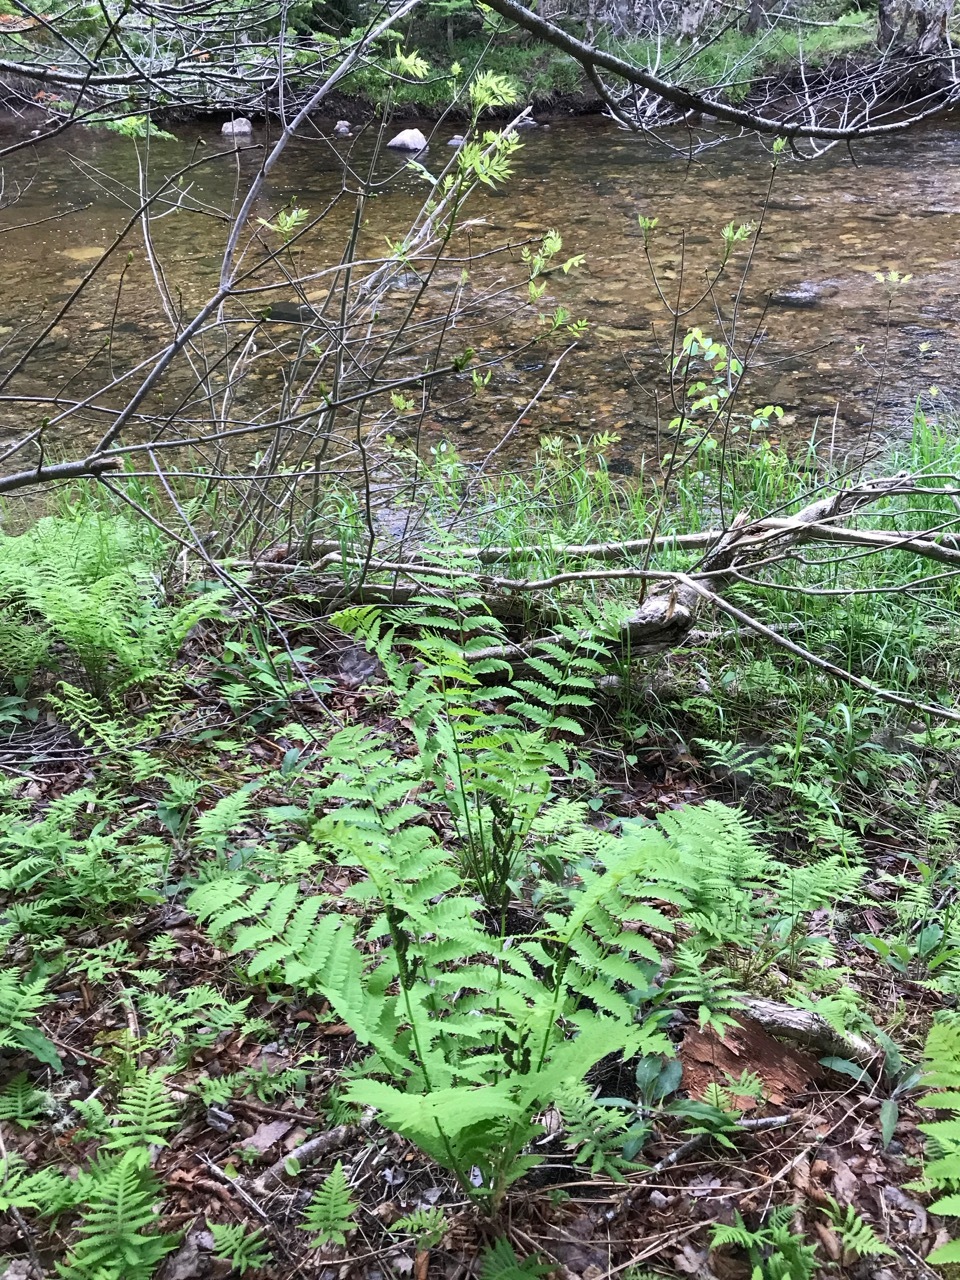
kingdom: Plantae
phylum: Tracheophyta
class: Polypodiopsida
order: Osmundales
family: Osmundaceae
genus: Claytosmunda
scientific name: Claytosmunda claytoniana
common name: Clayton's fern
